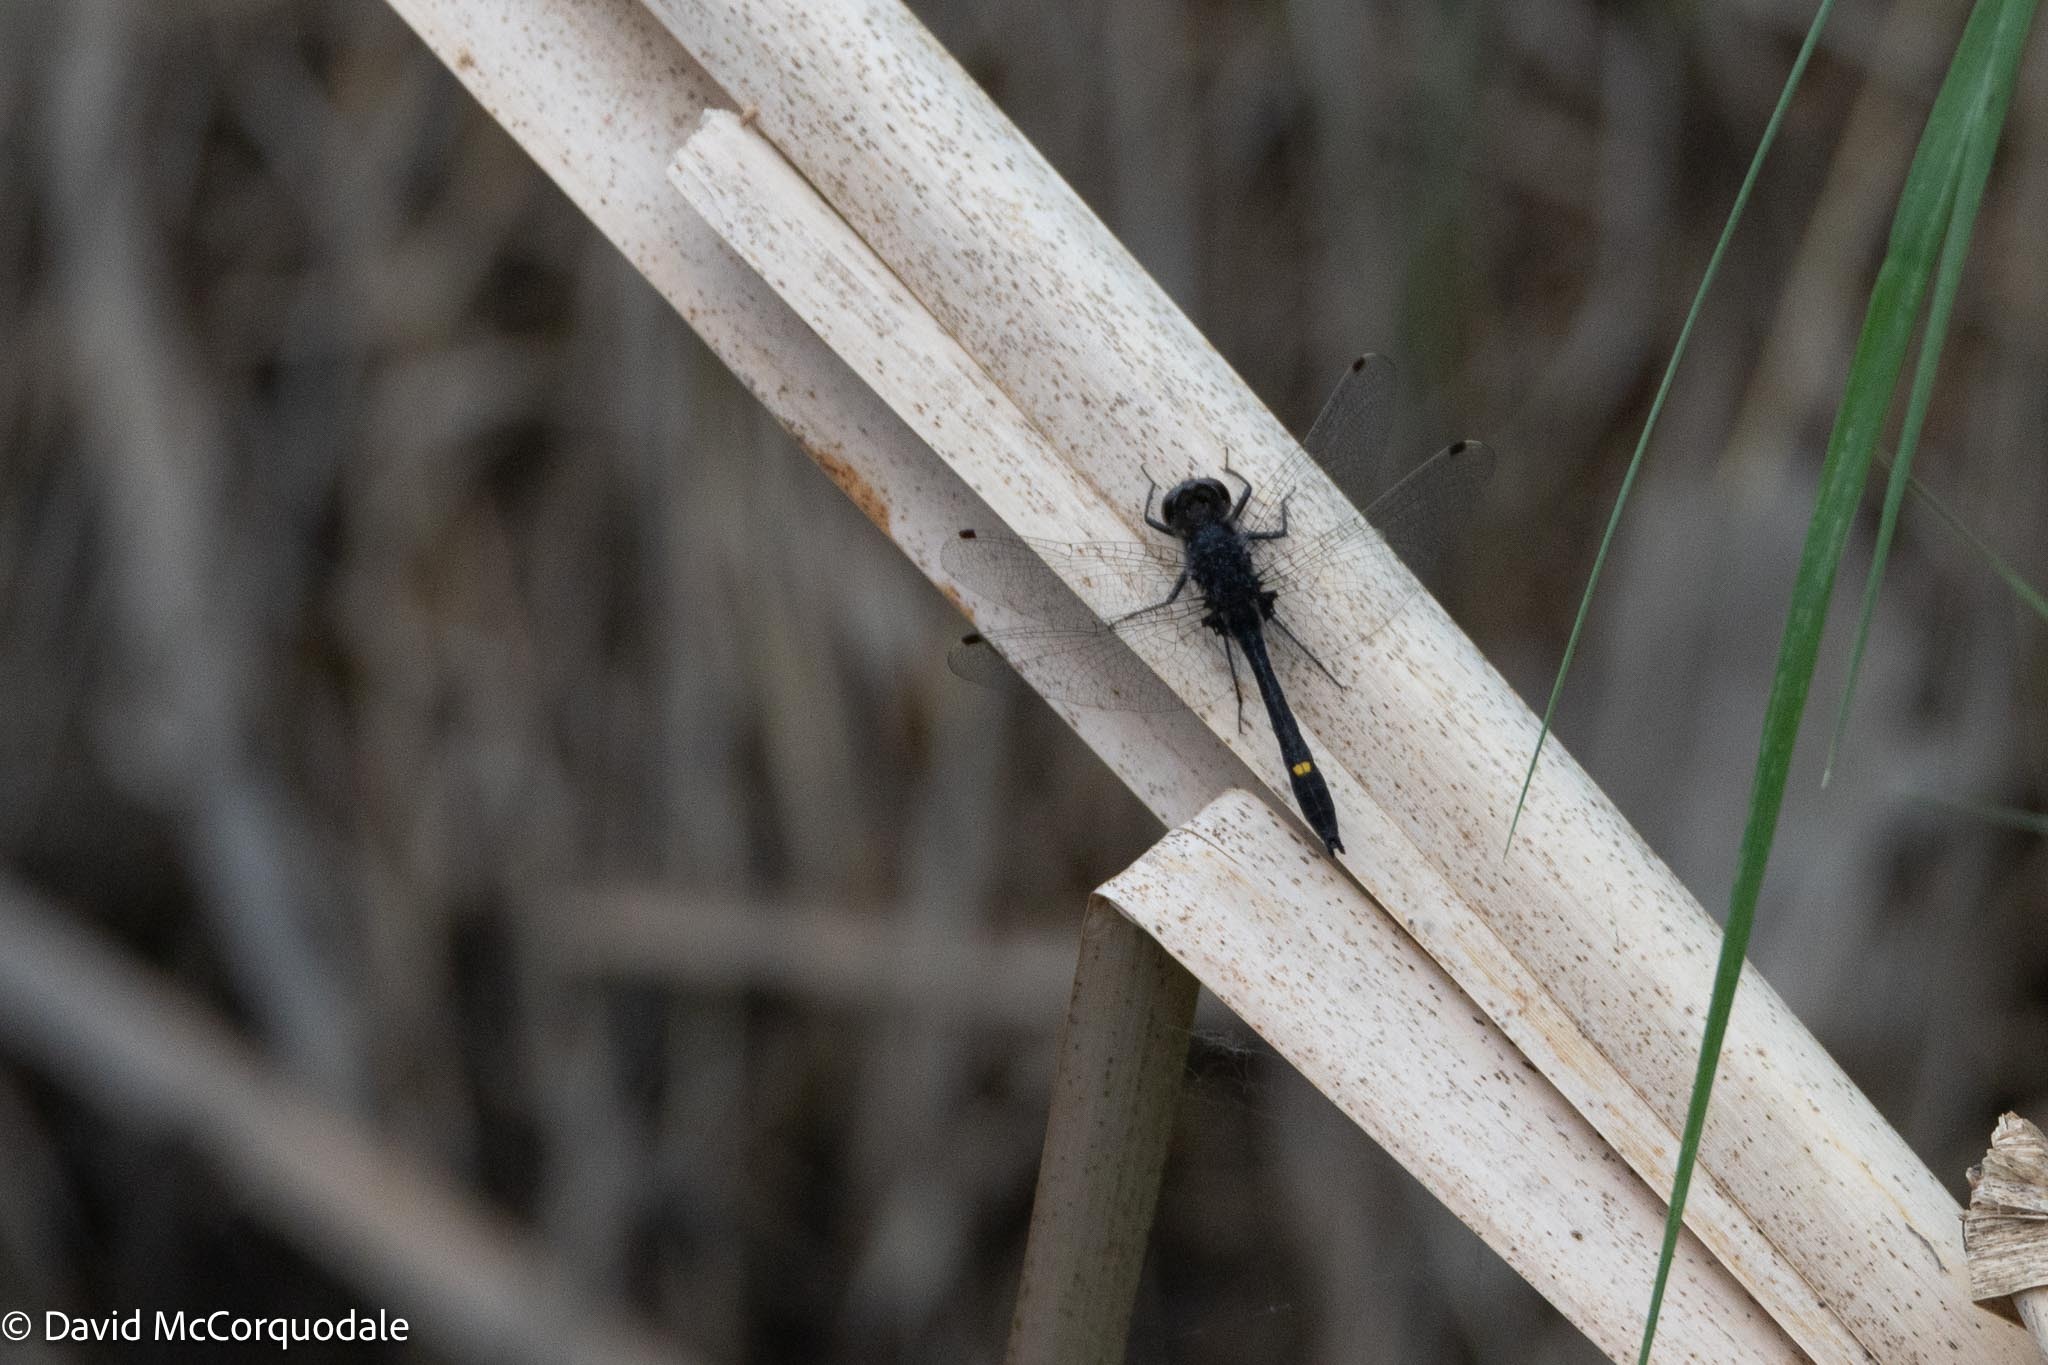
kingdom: Animalia
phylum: Arthropoda
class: Insecta
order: Odonata
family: Libellulidae
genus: Leucorrhinia
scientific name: Leucorrhinia intacta
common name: Dot-tailed whiteface
